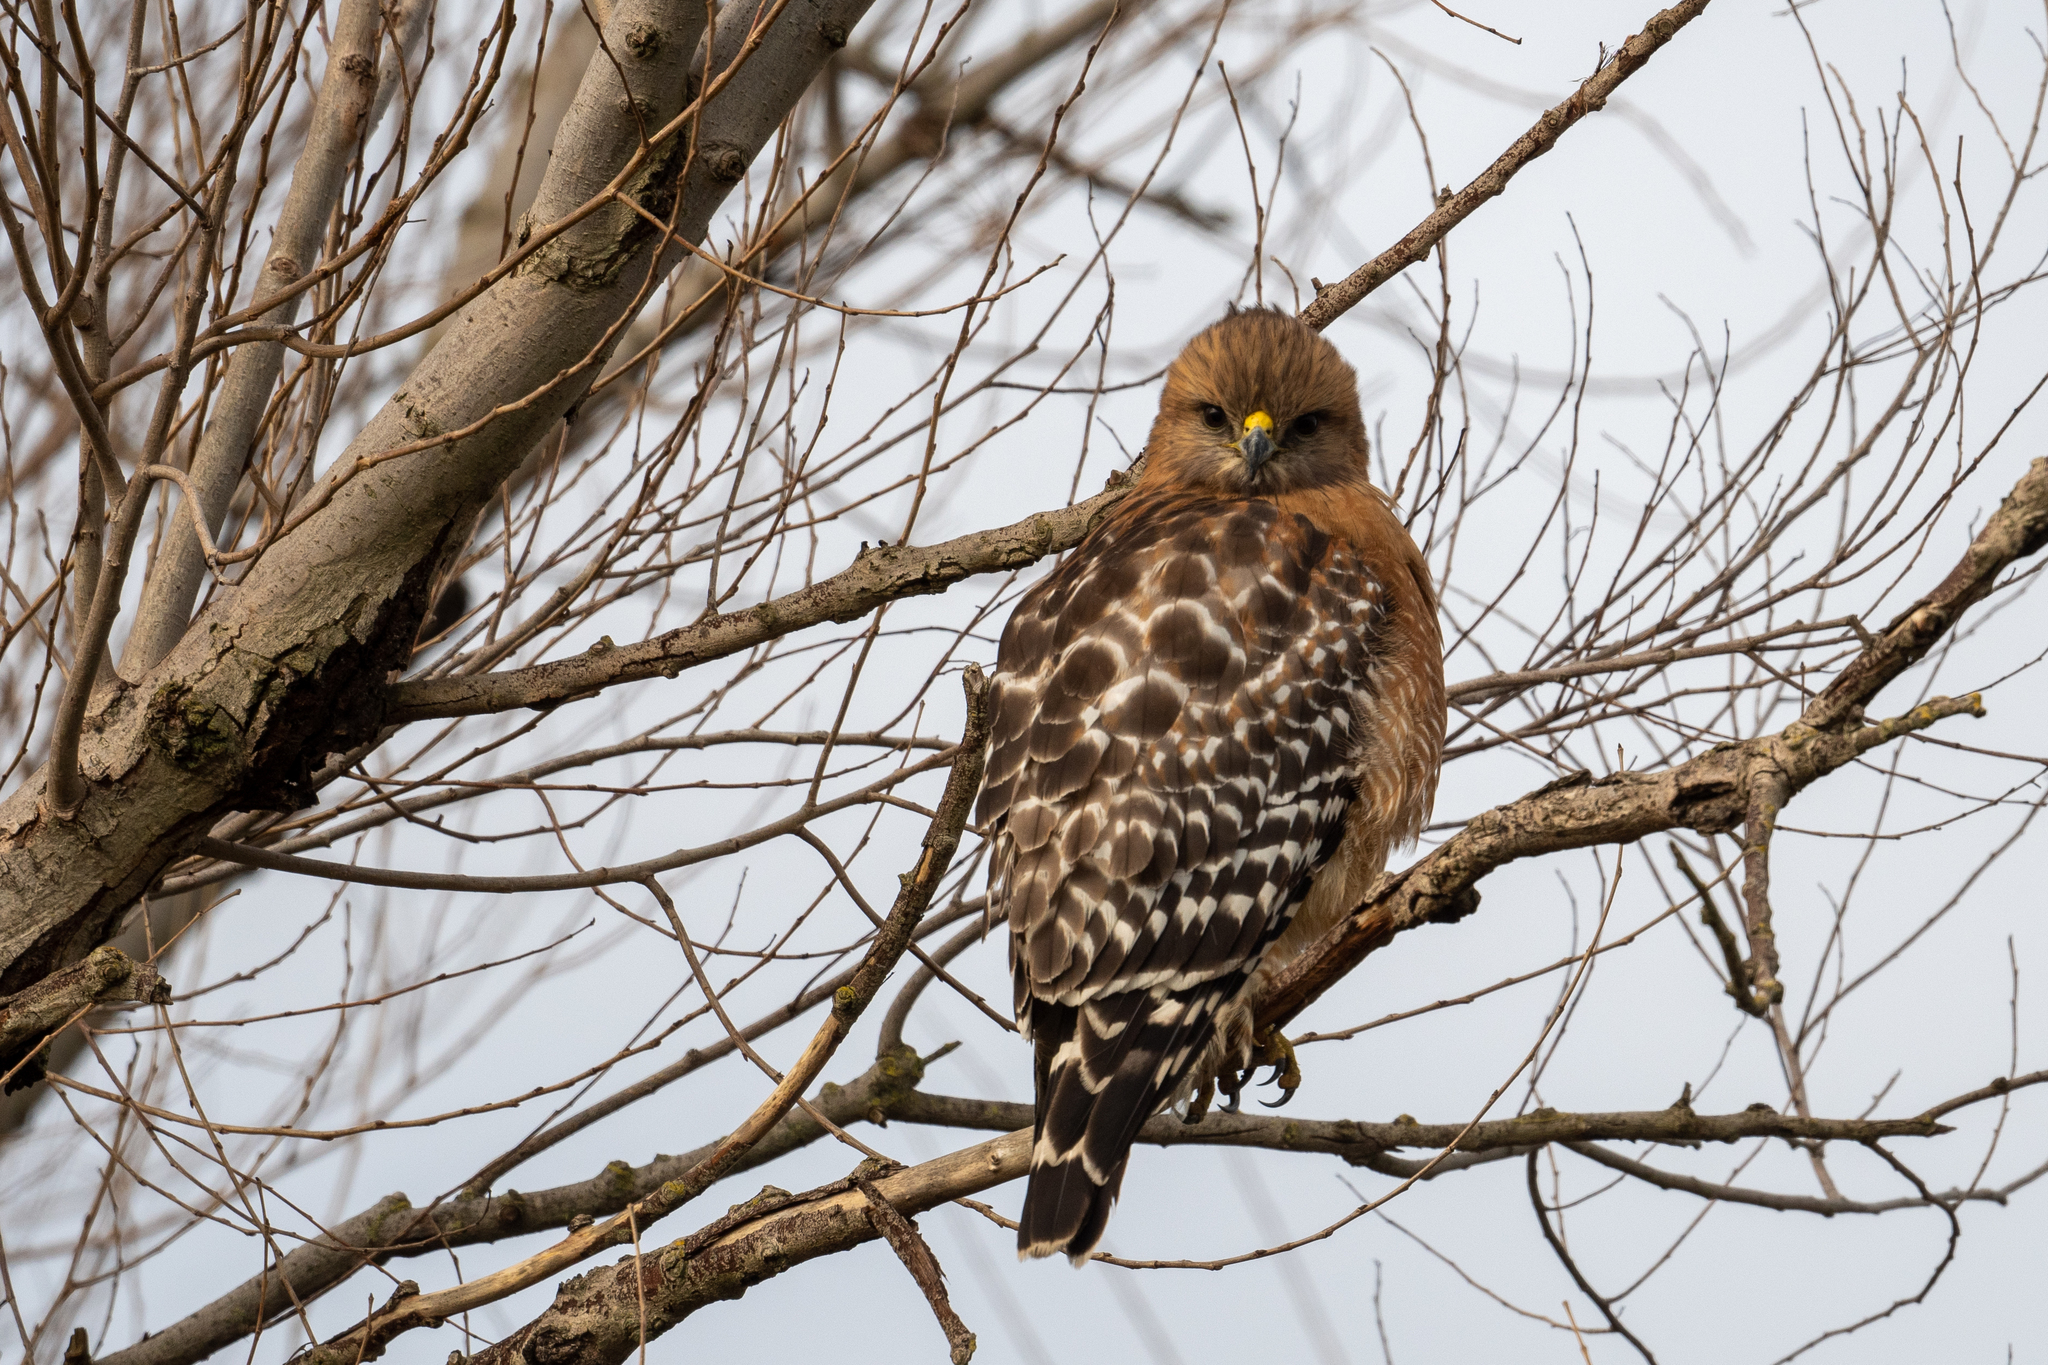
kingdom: Animalia
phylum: Chordata
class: Aves
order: Accipitriformes
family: Accipitridae
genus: Buteo
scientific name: Buteo lineatus
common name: Red-shouldered hawk
